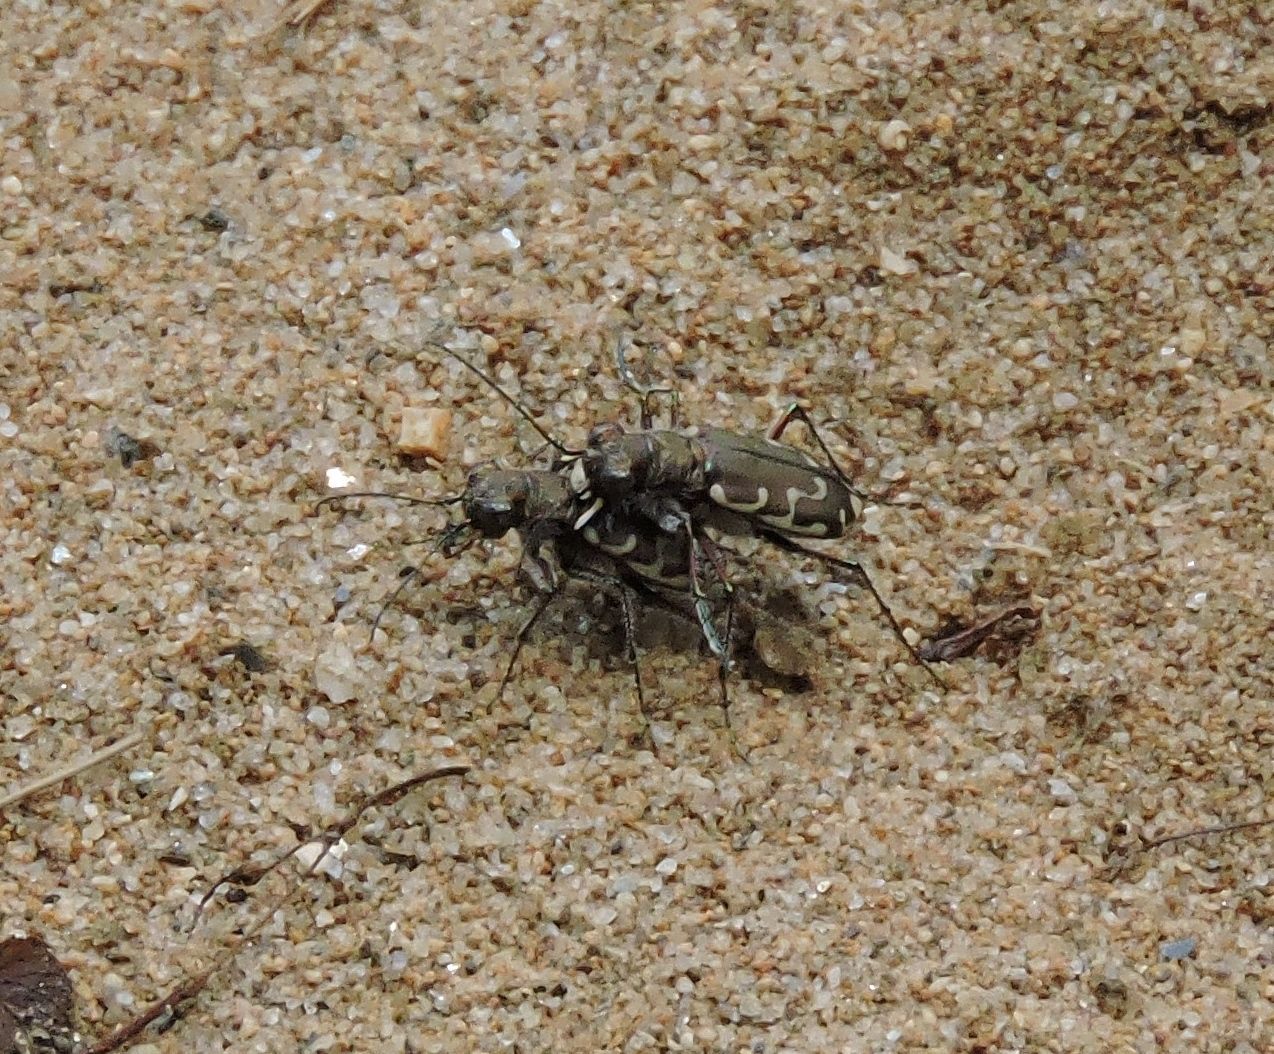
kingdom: Animalia
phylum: Arthropoda
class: Insecta
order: Coleoptera
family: Carabidae
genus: Cicindela
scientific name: Cicindela repanda
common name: Bronzed tiger beetle
